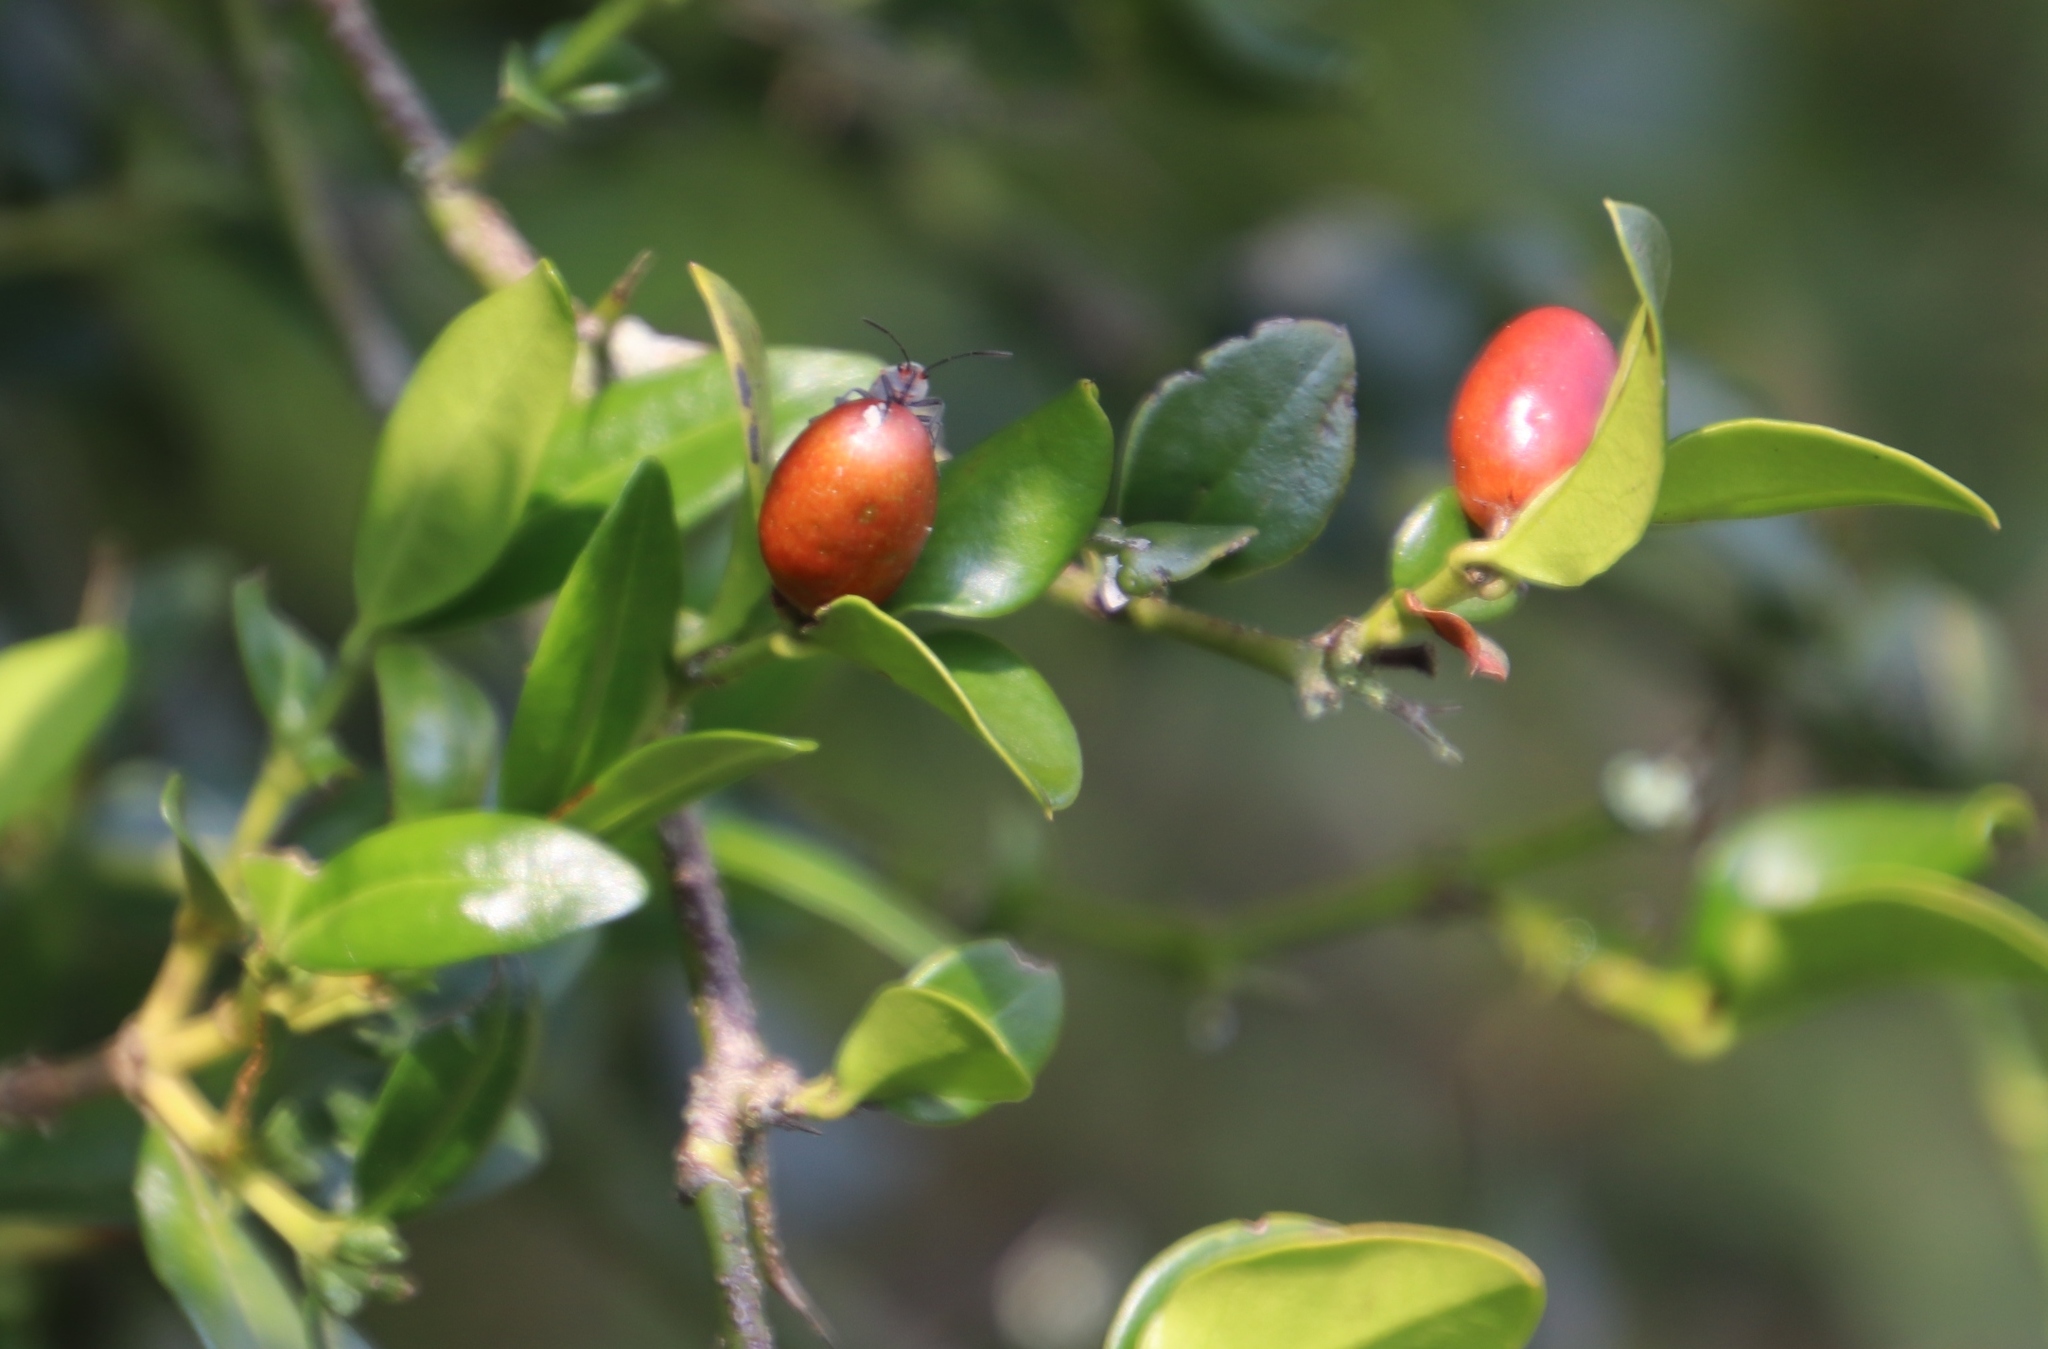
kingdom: Plantae
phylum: Tracheophyta
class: Magnoliopsida
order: Gentianales
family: Apocynaceae
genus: Carissa
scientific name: Carissa bispinosa
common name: Forest num-num
